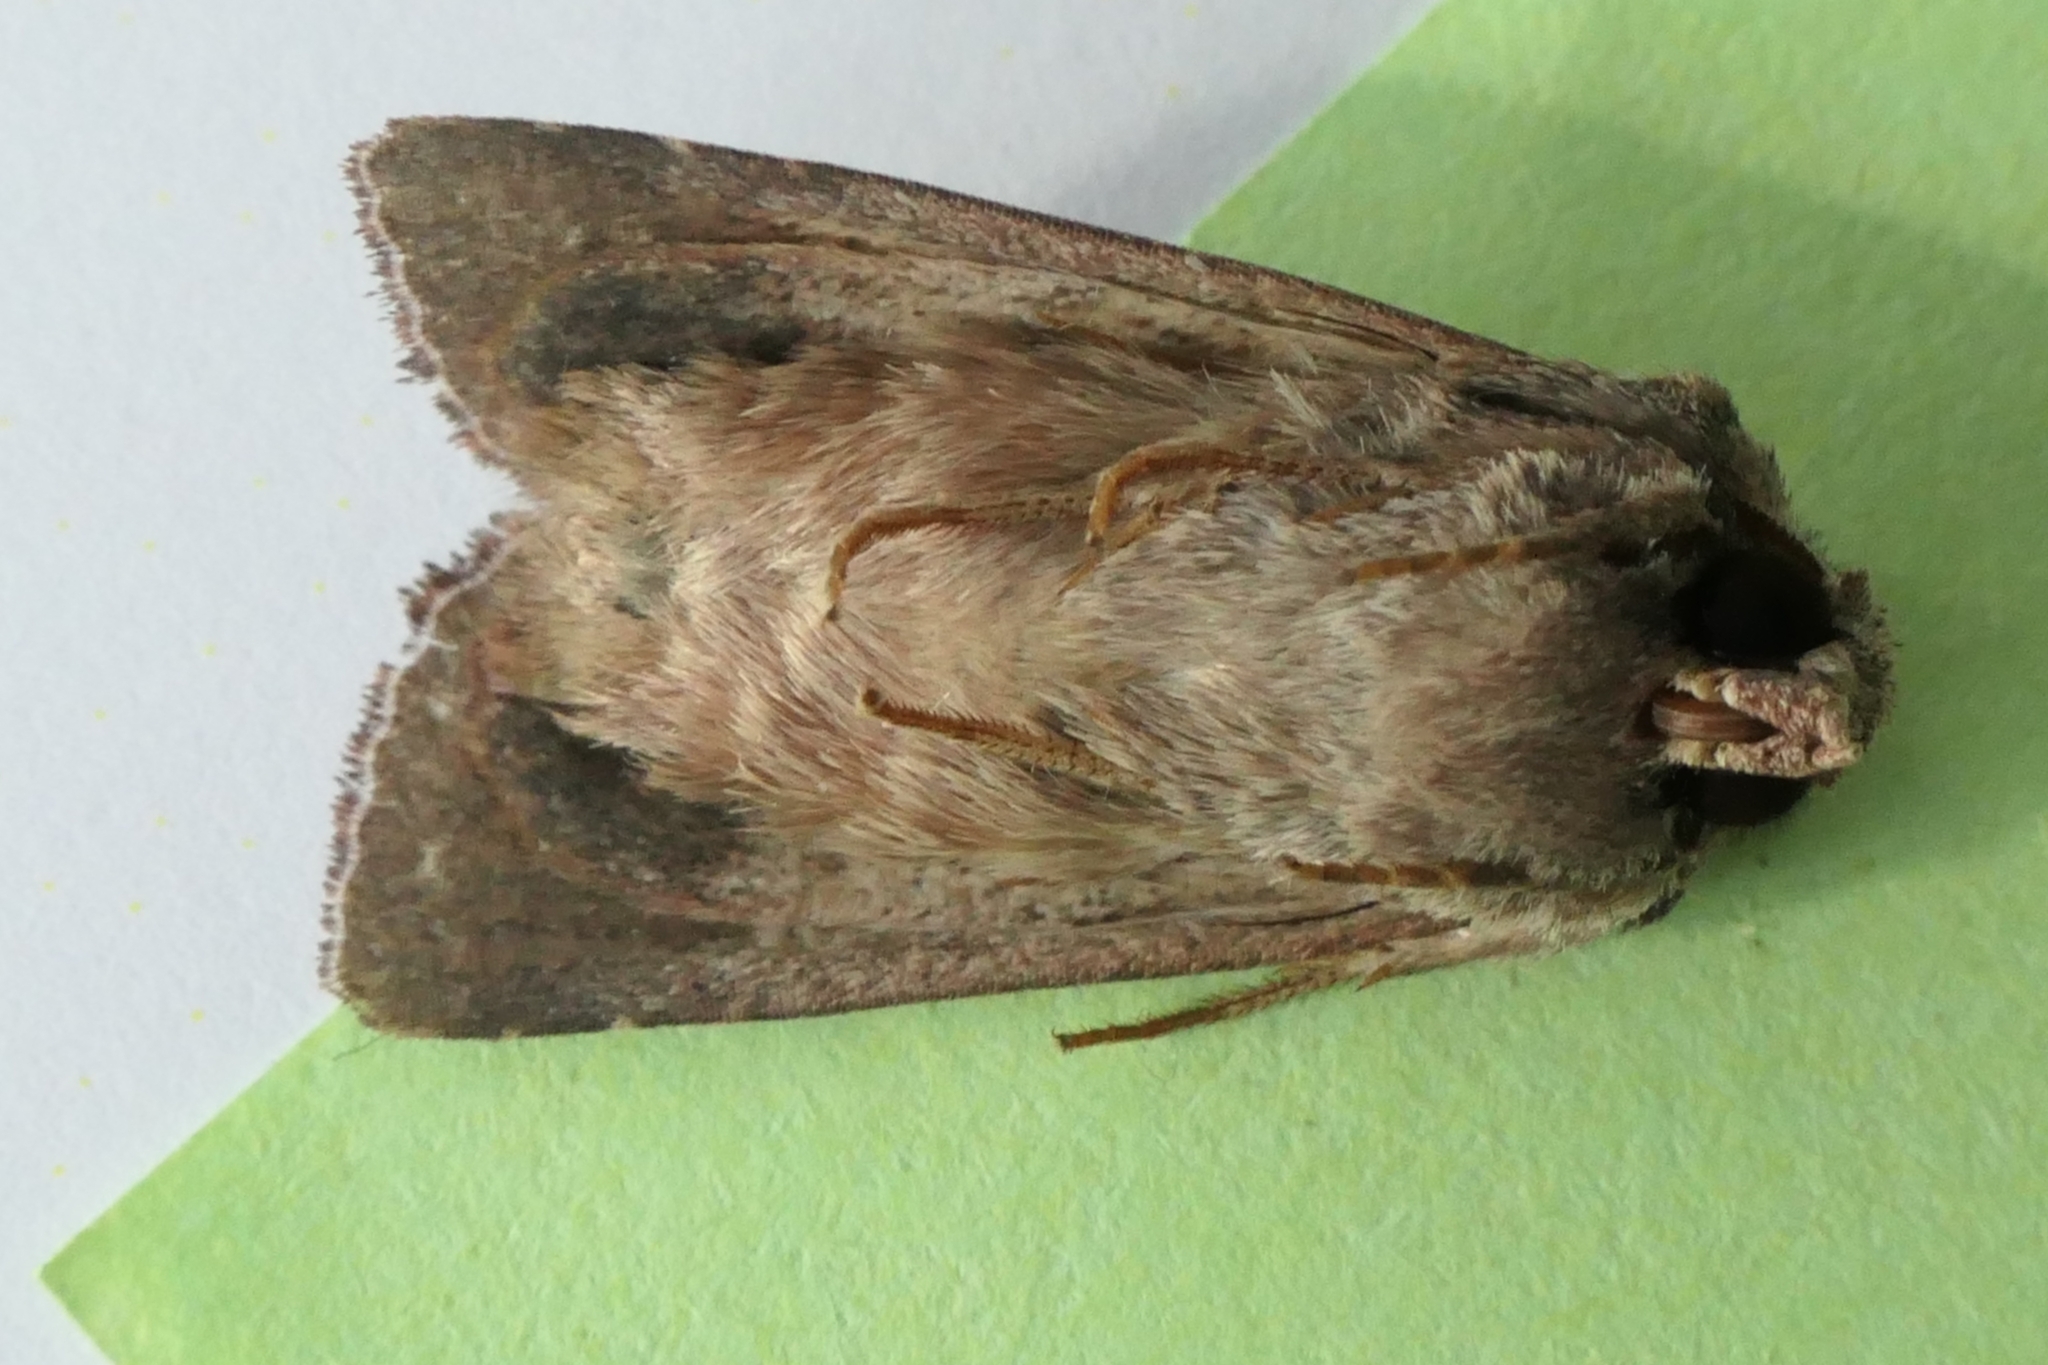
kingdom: Animalia
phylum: Arthropoda
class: Insecta
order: Lepidoptera
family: Noctuidae
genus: Ichneutica
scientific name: Ichneutica
